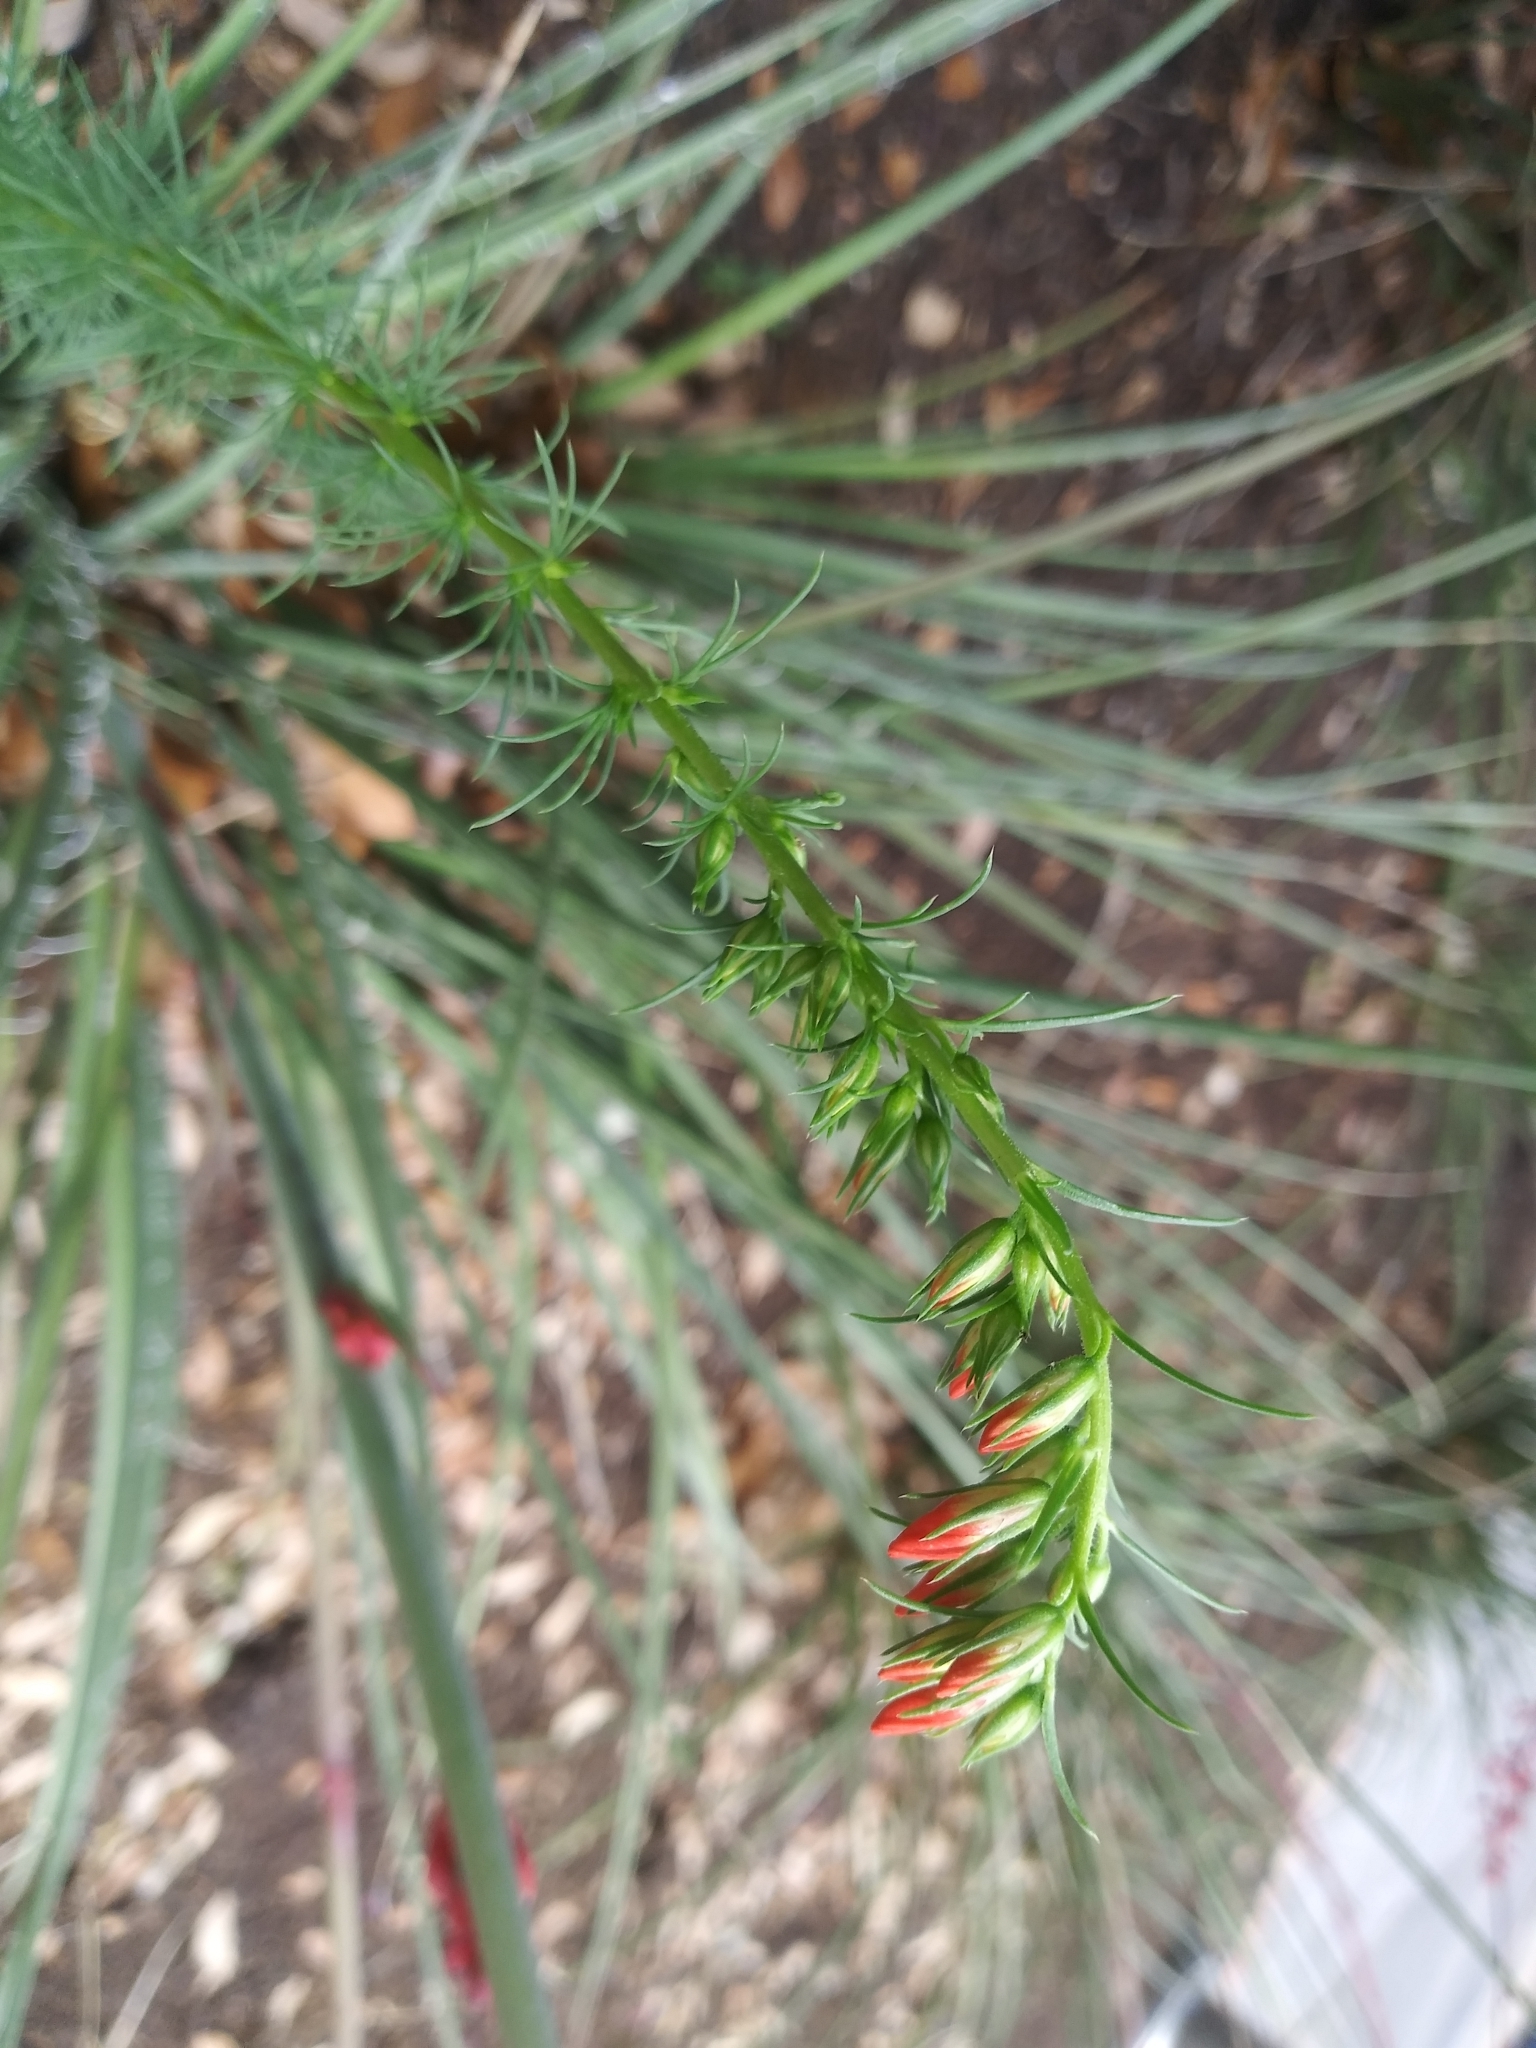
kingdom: Plantae
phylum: Tracheophyta
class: Magnoliopsida
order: Ericales
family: Polemoniaceae
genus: Ipomopsis
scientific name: Ipomopsis rubra
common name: Skyrocket
